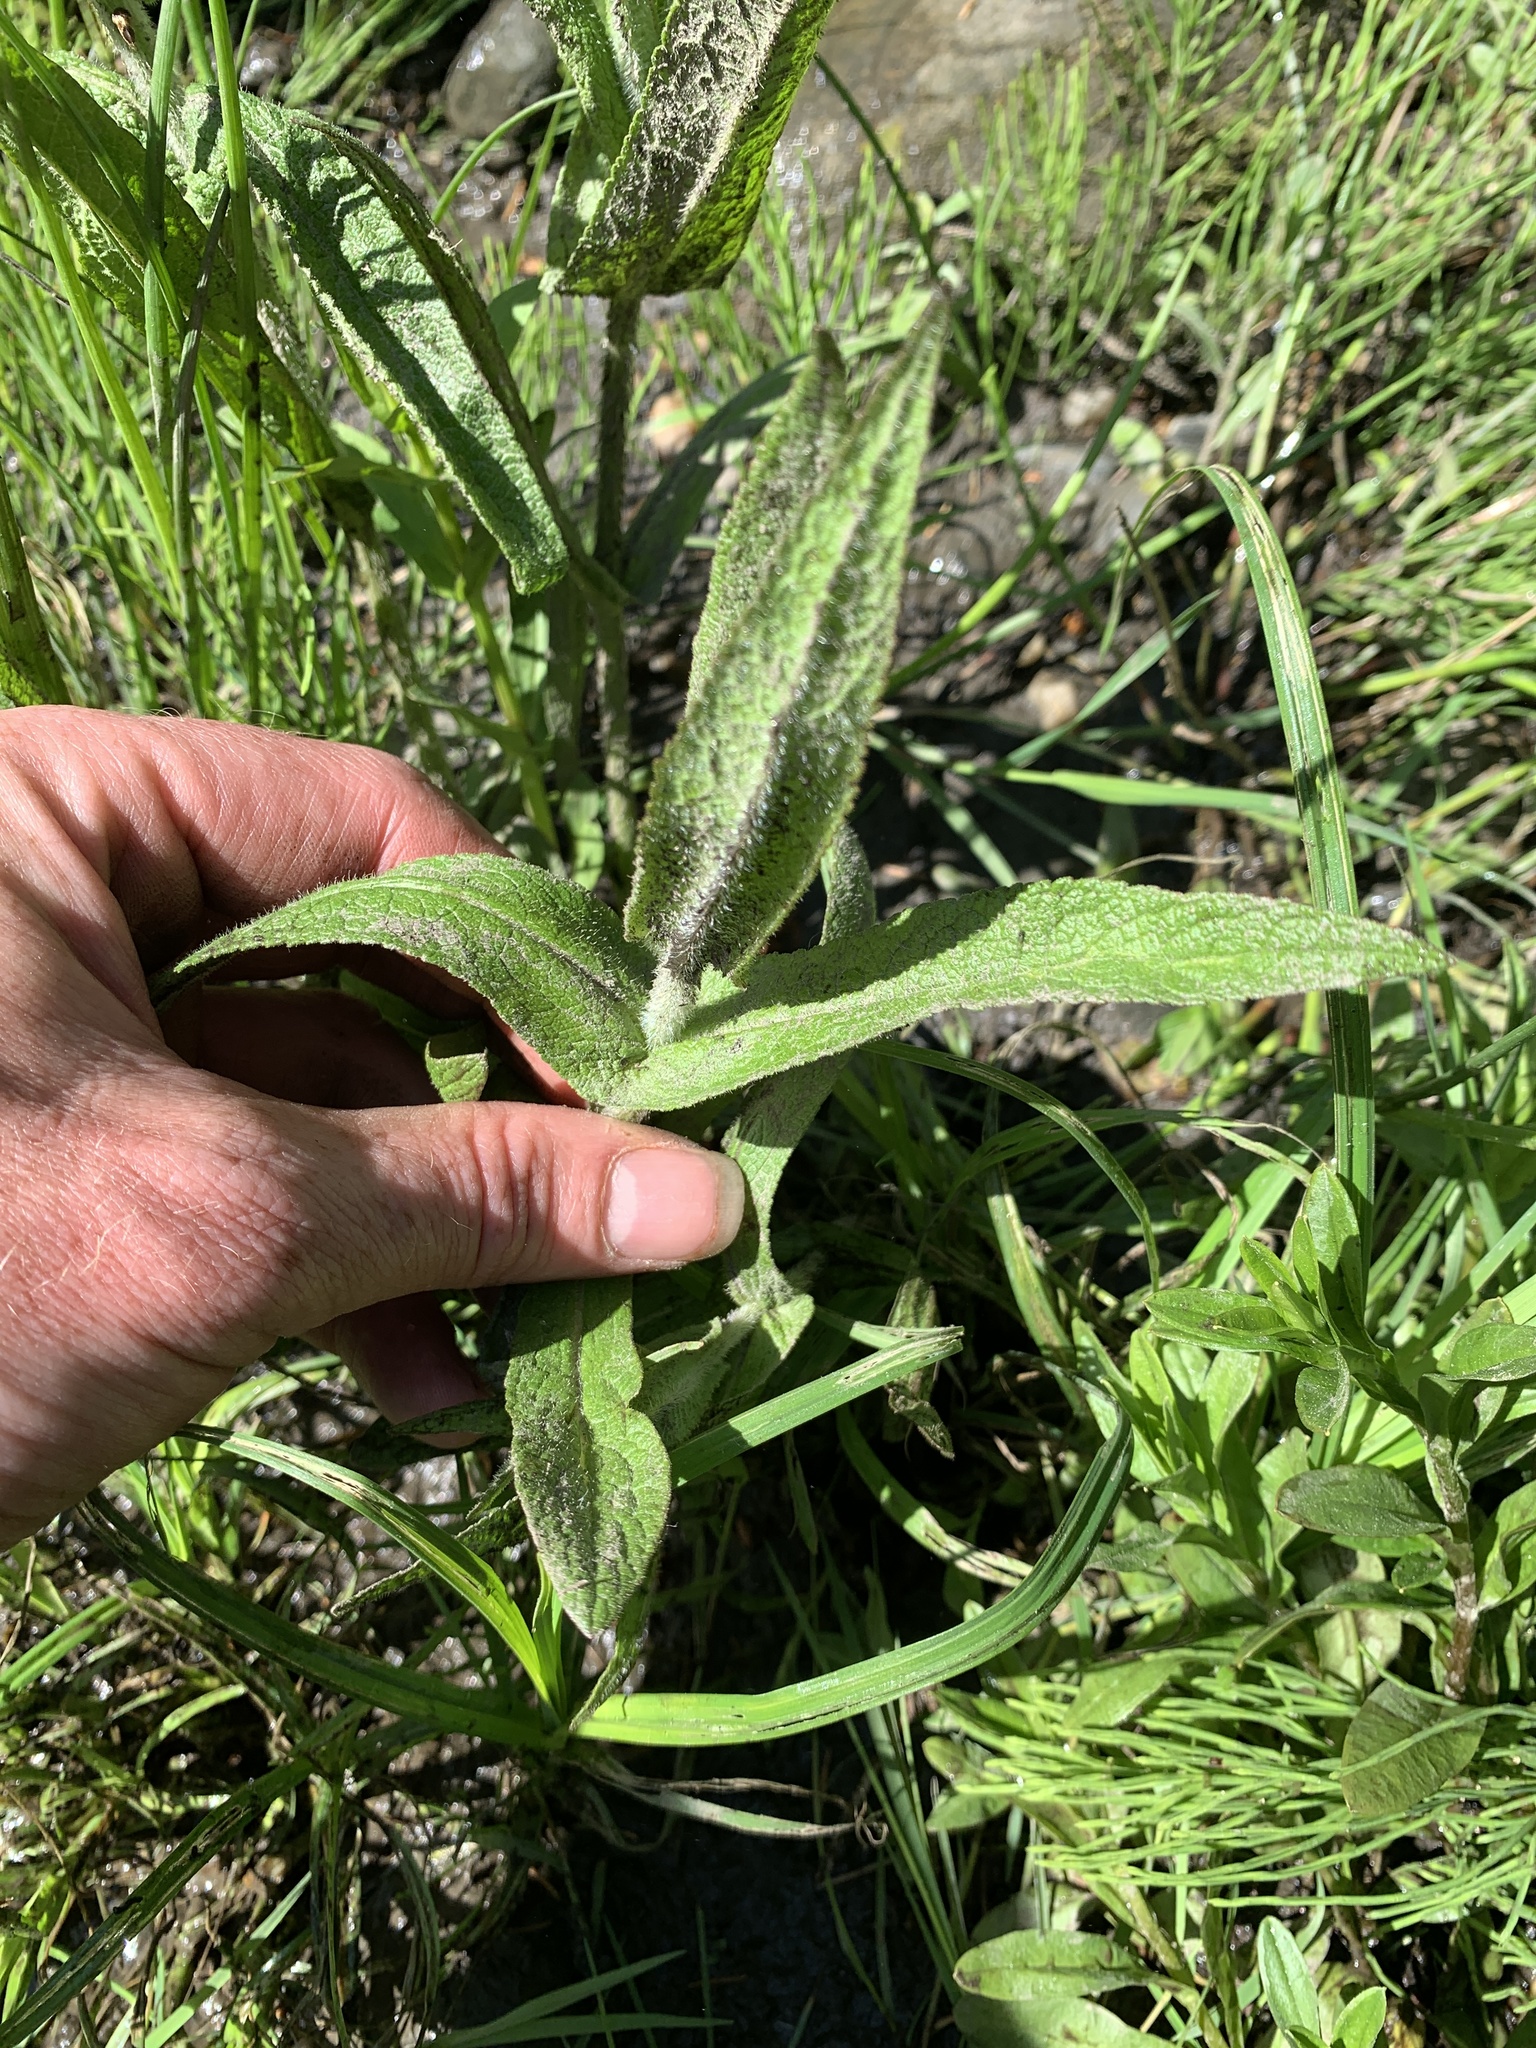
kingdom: Plantae
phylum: Tracheophyta
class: Magnoliopsida
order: Asterales
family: Asteraceae
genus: Eupatorium
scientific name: Eupatorium perfoliatum
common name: Boneset
